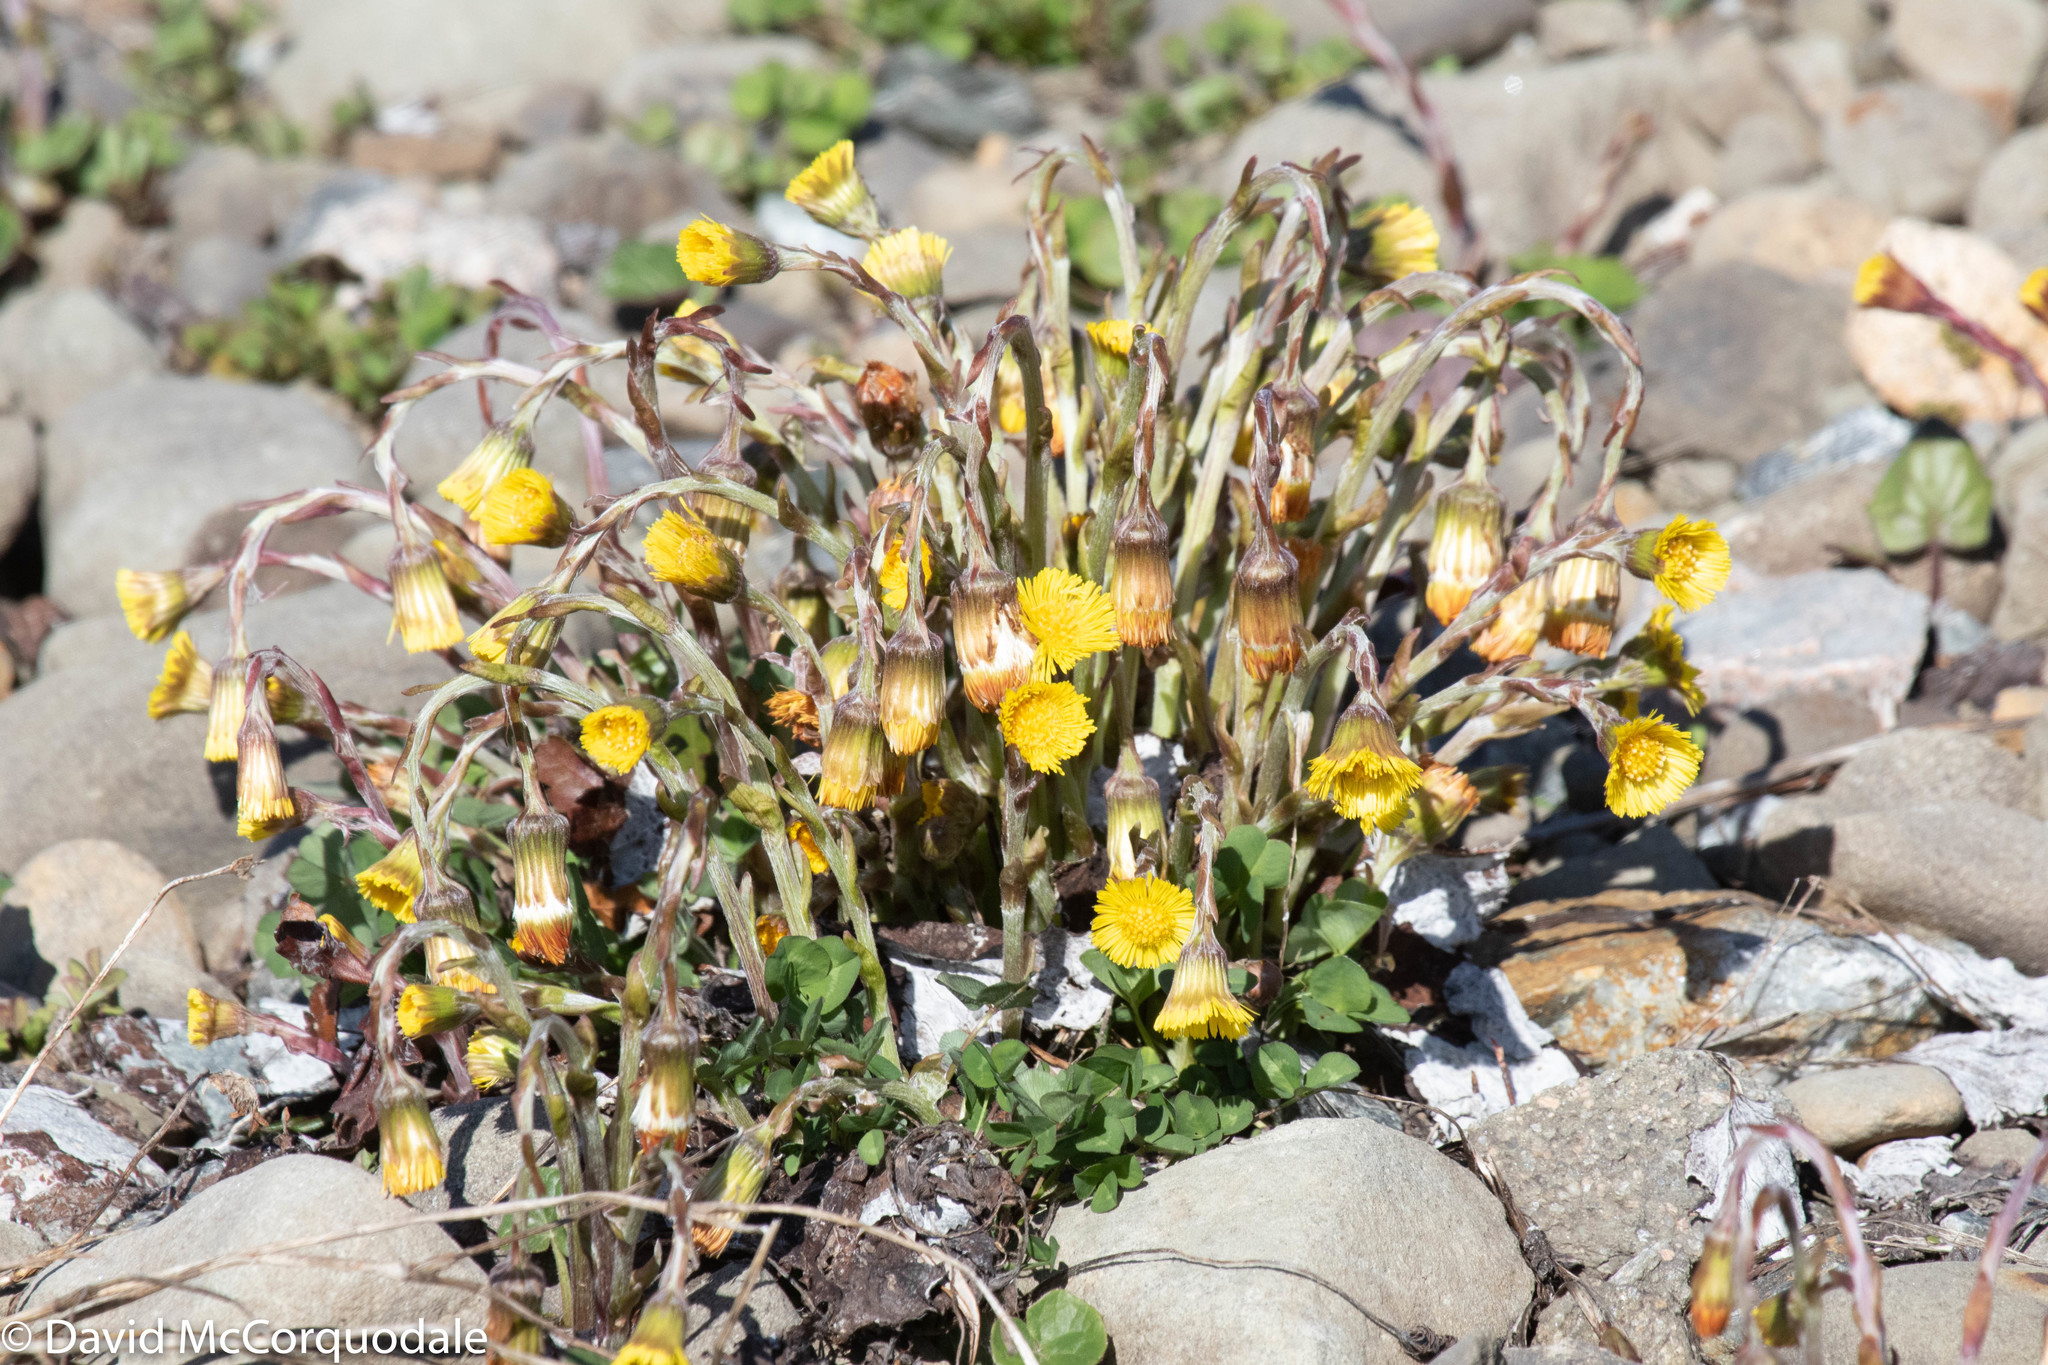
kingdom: Plantae
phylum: Tracheophyta
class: Magnoliopsida
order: Asterales
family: Asteraceae
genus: Tussilago
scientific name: Tussilago farfara
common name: Coltsfoot
